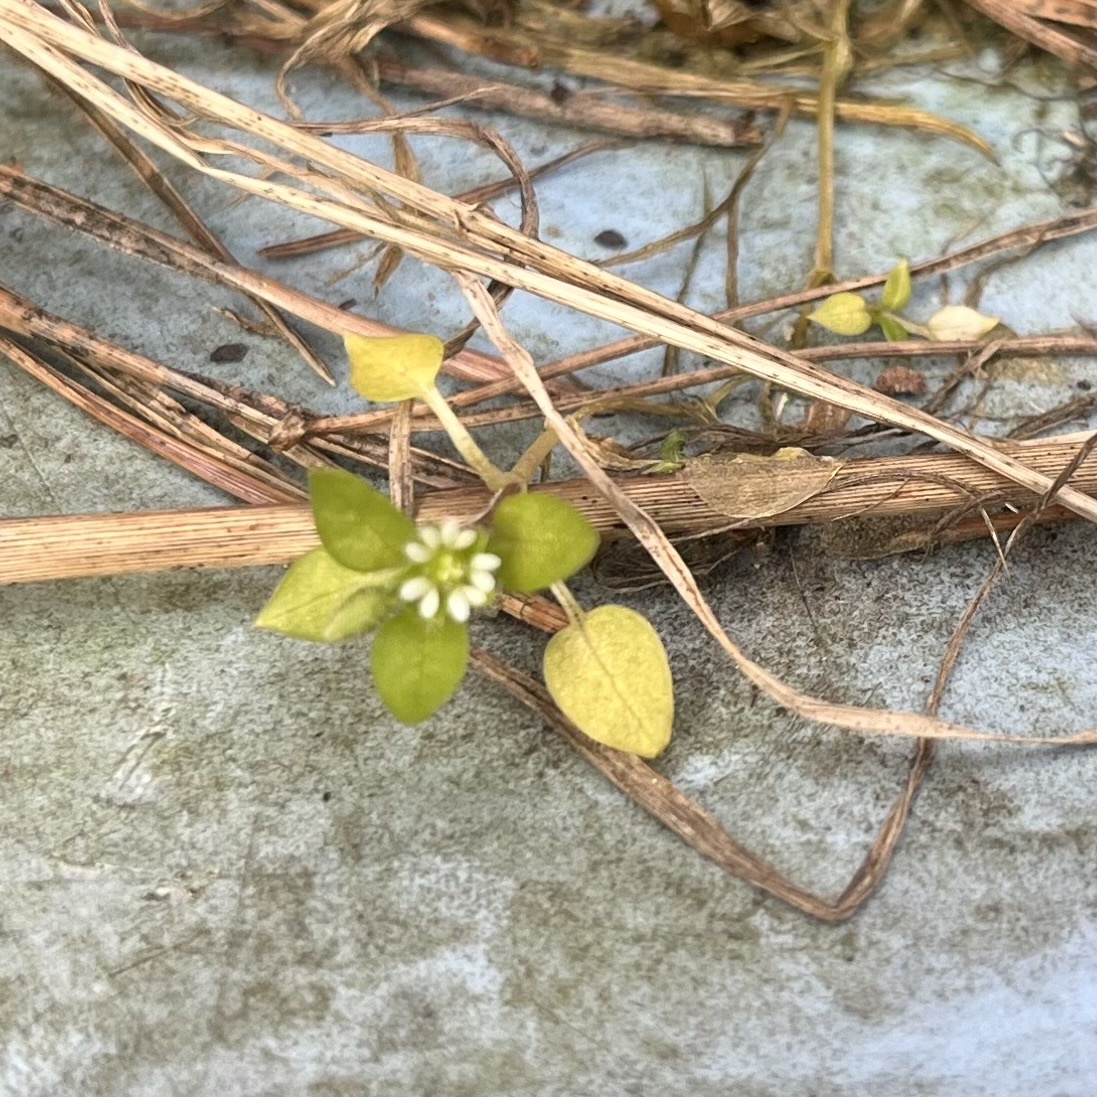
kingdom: Plantae
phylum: Tracheophyta
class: Magnoliopsida
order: Caryophyllales
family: Caryophyllaceae
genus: Stellaria
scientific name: Stellaria media
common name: Common chickweed
